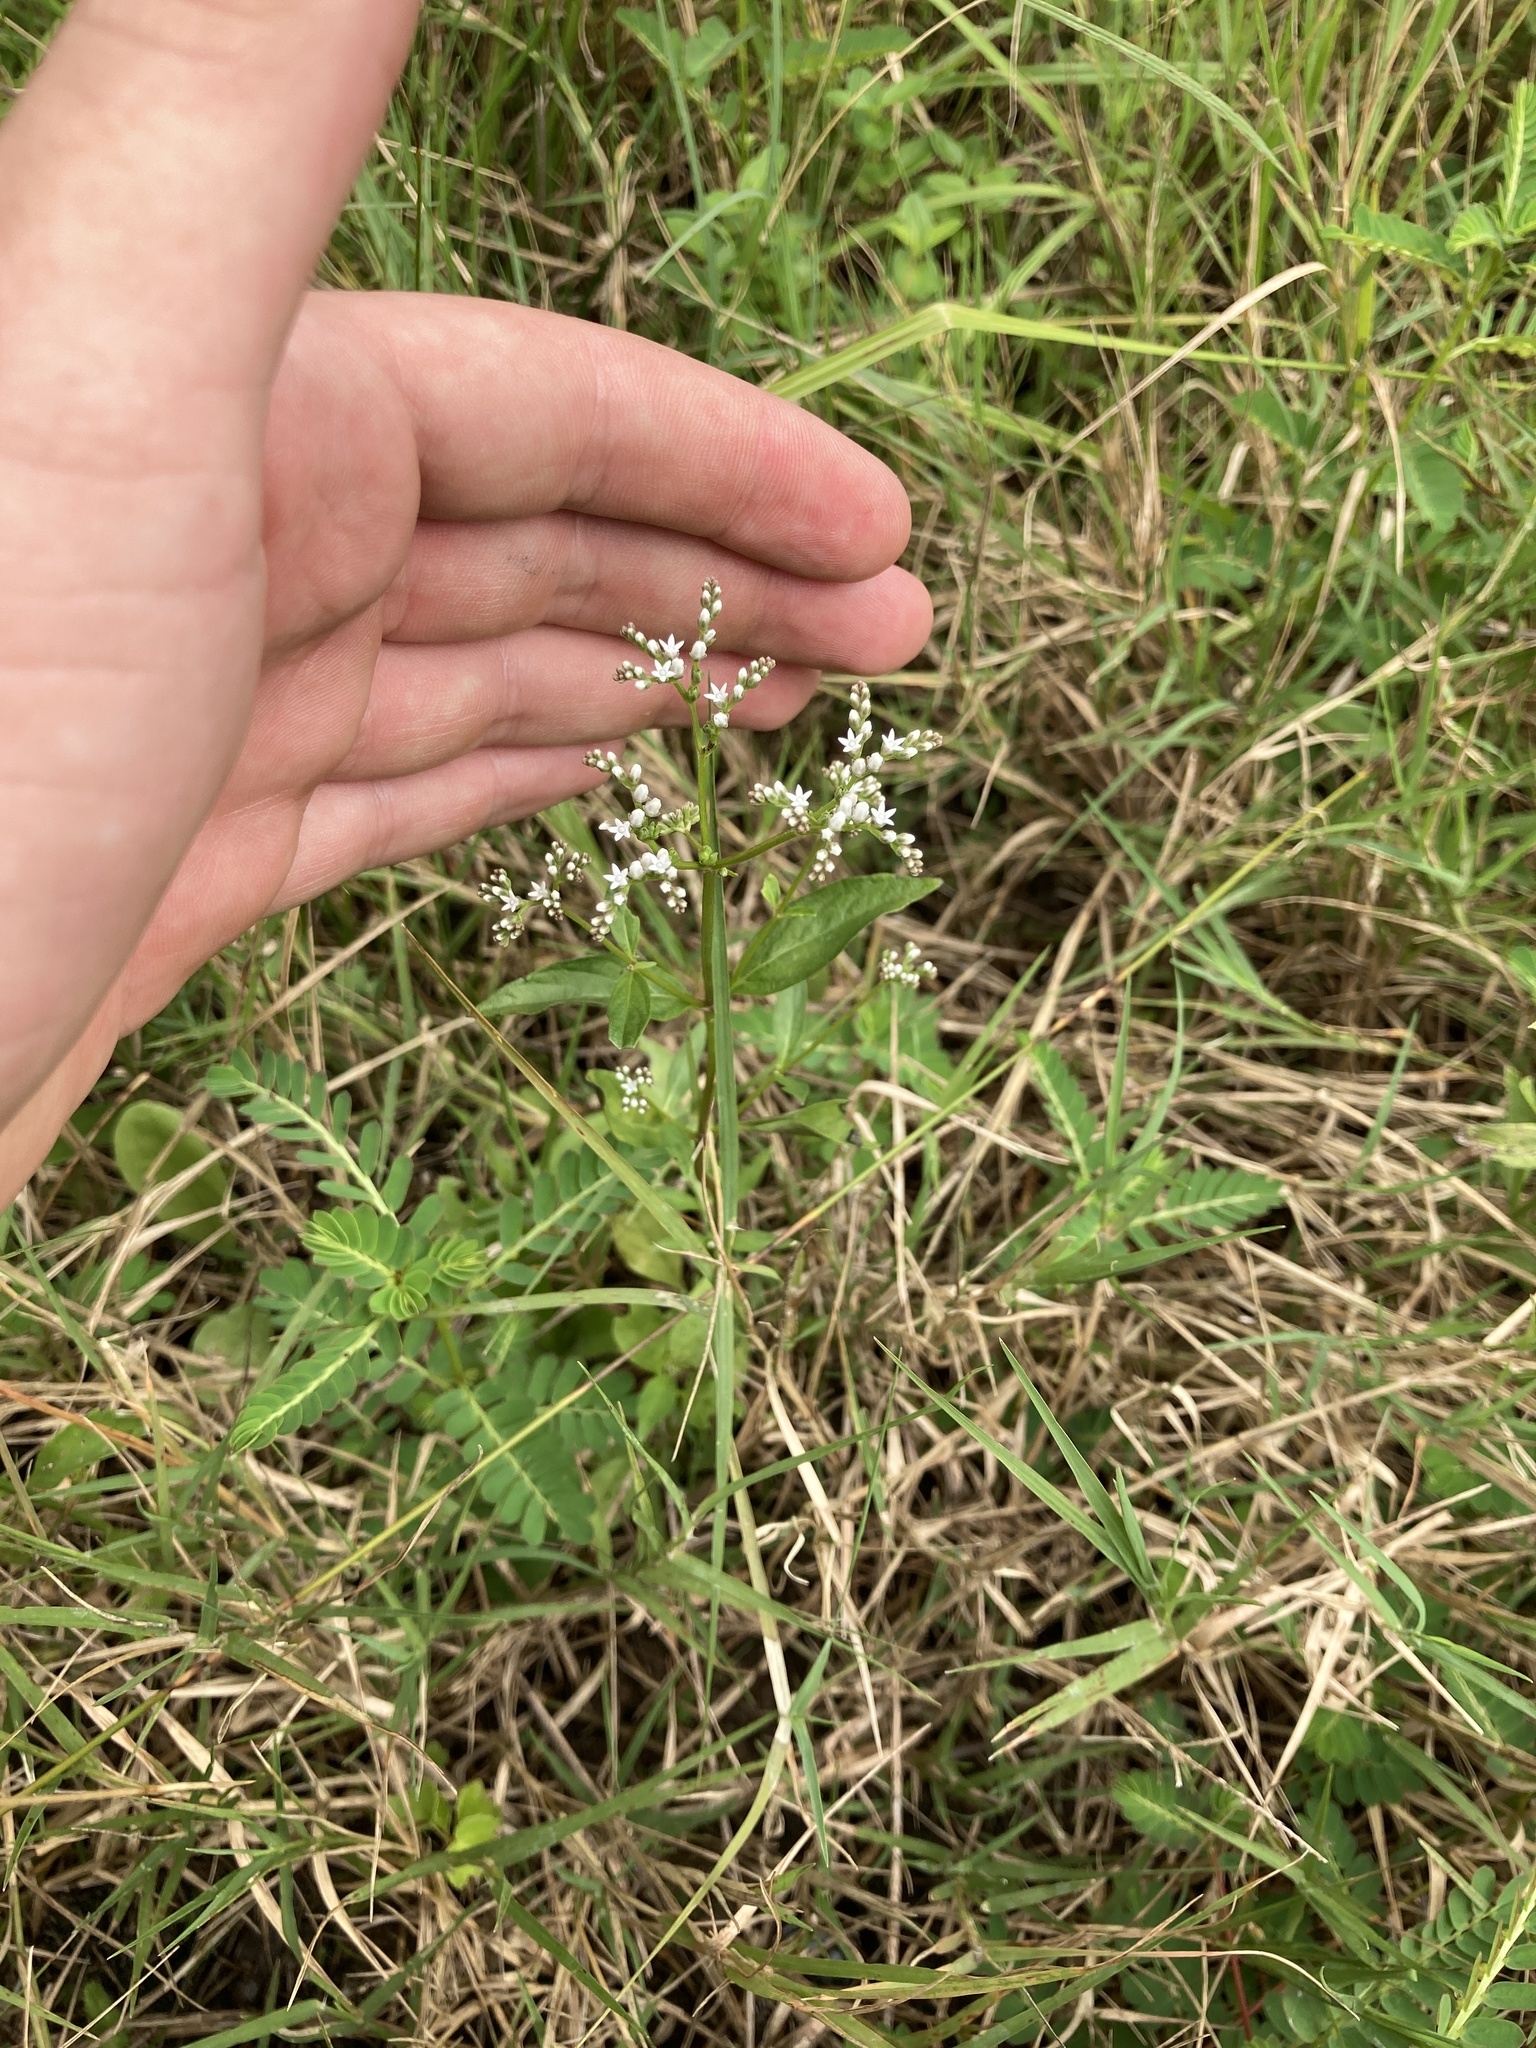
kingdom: Plantae
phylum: Tracheophyta
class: Magnoliopsida
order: Gentianales
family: Loganiaceae
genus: Mitreola
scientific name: Mitreola petiolata
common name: Lax hornpod
